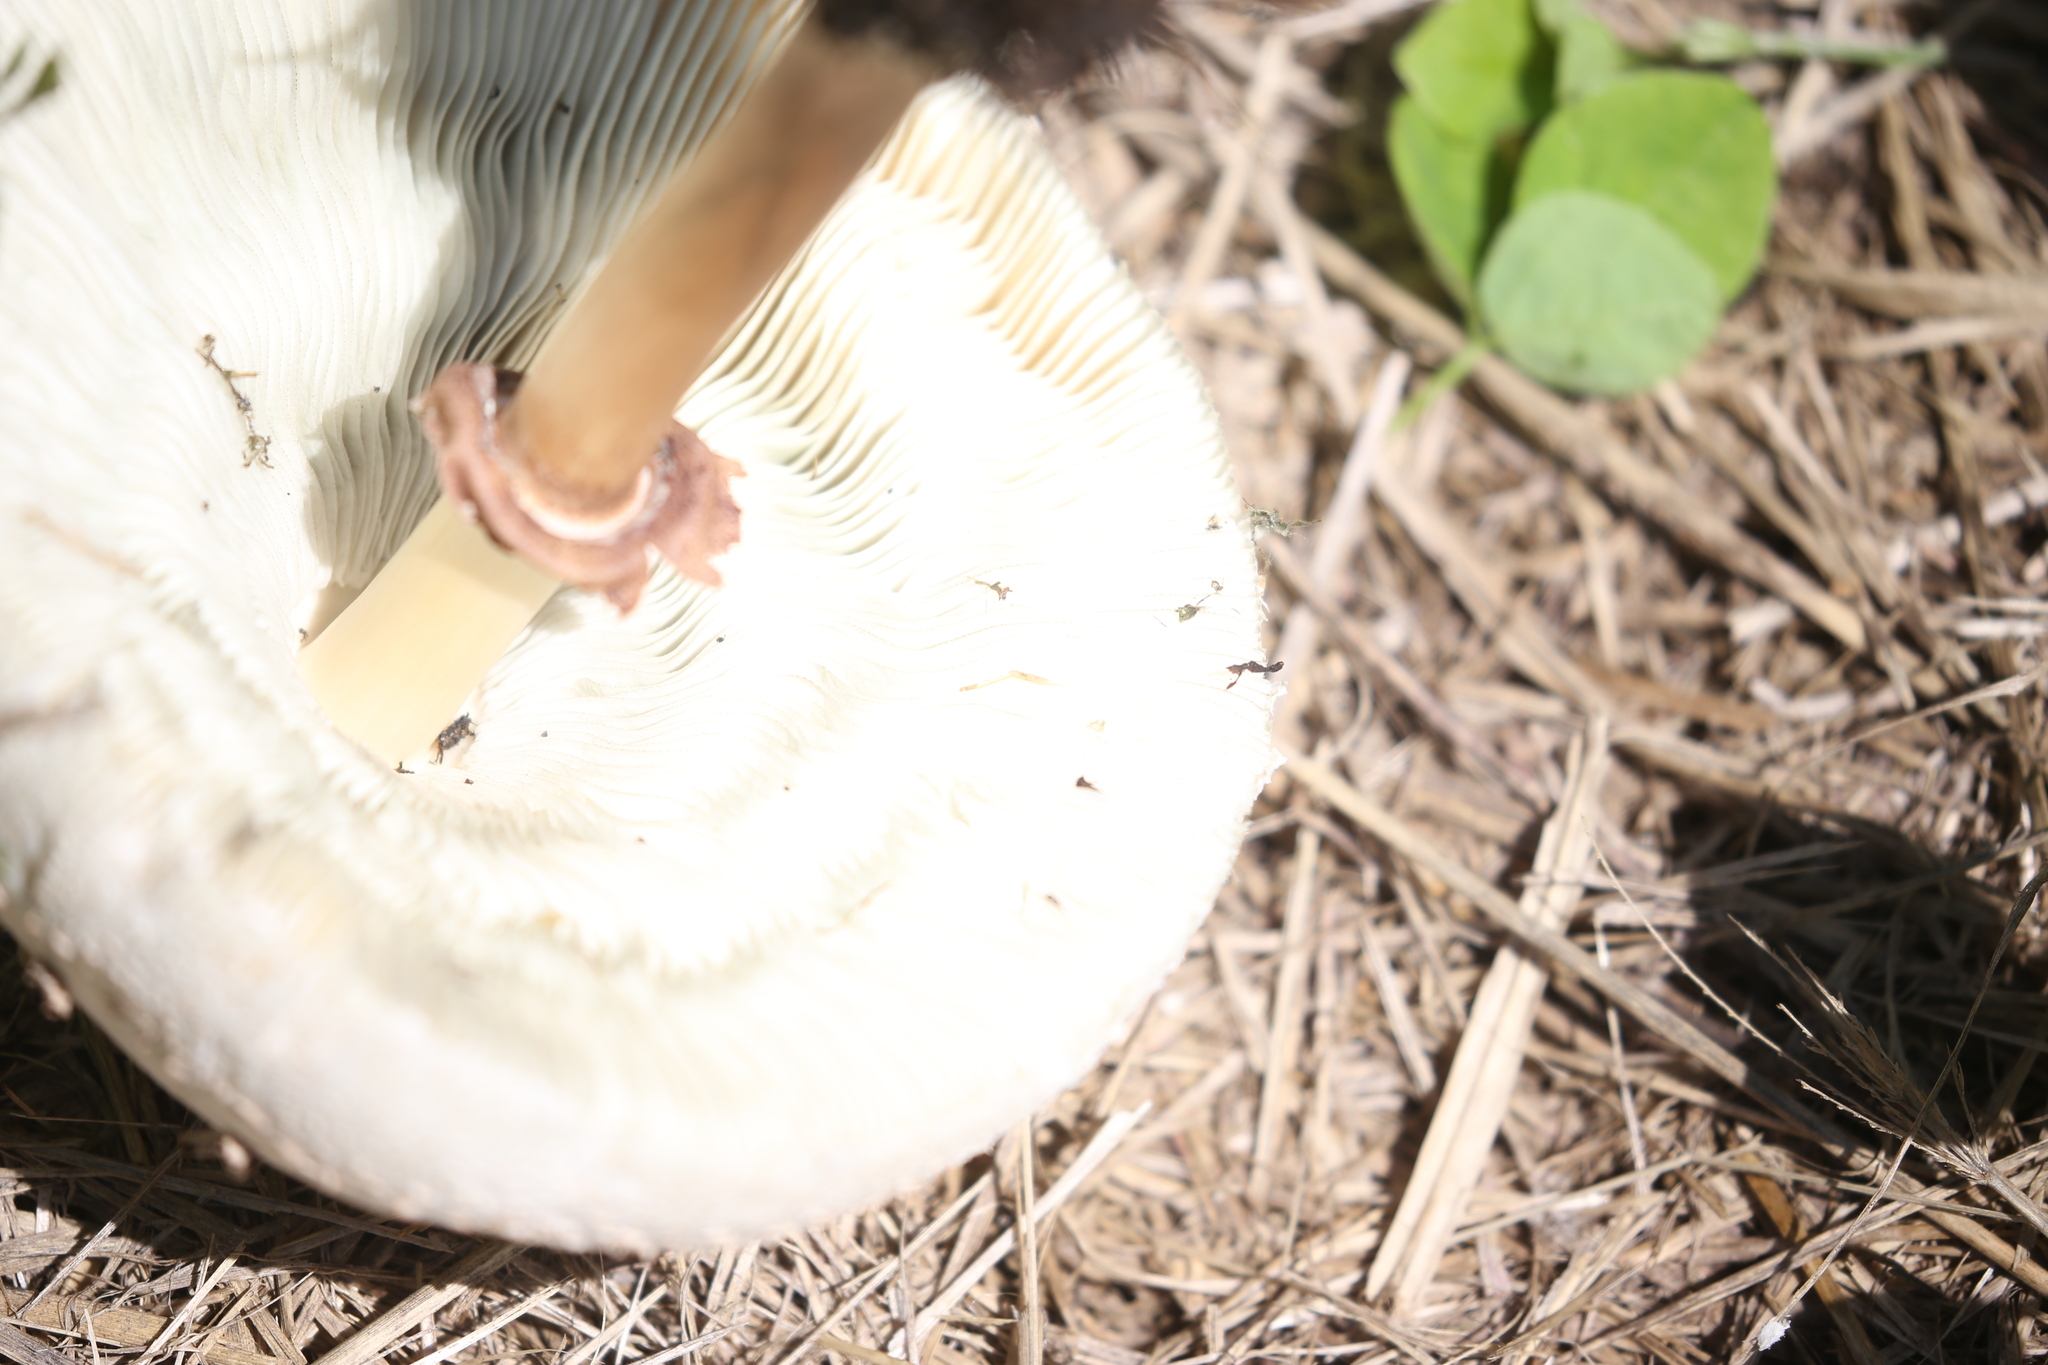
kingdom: Fungi
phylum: Basidiomycota
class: Agaricomycetes
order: Agaricales
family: Agaricaceae
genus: Chlorophyllum
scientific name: Chlorophyllum molybdites
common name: False parasol
